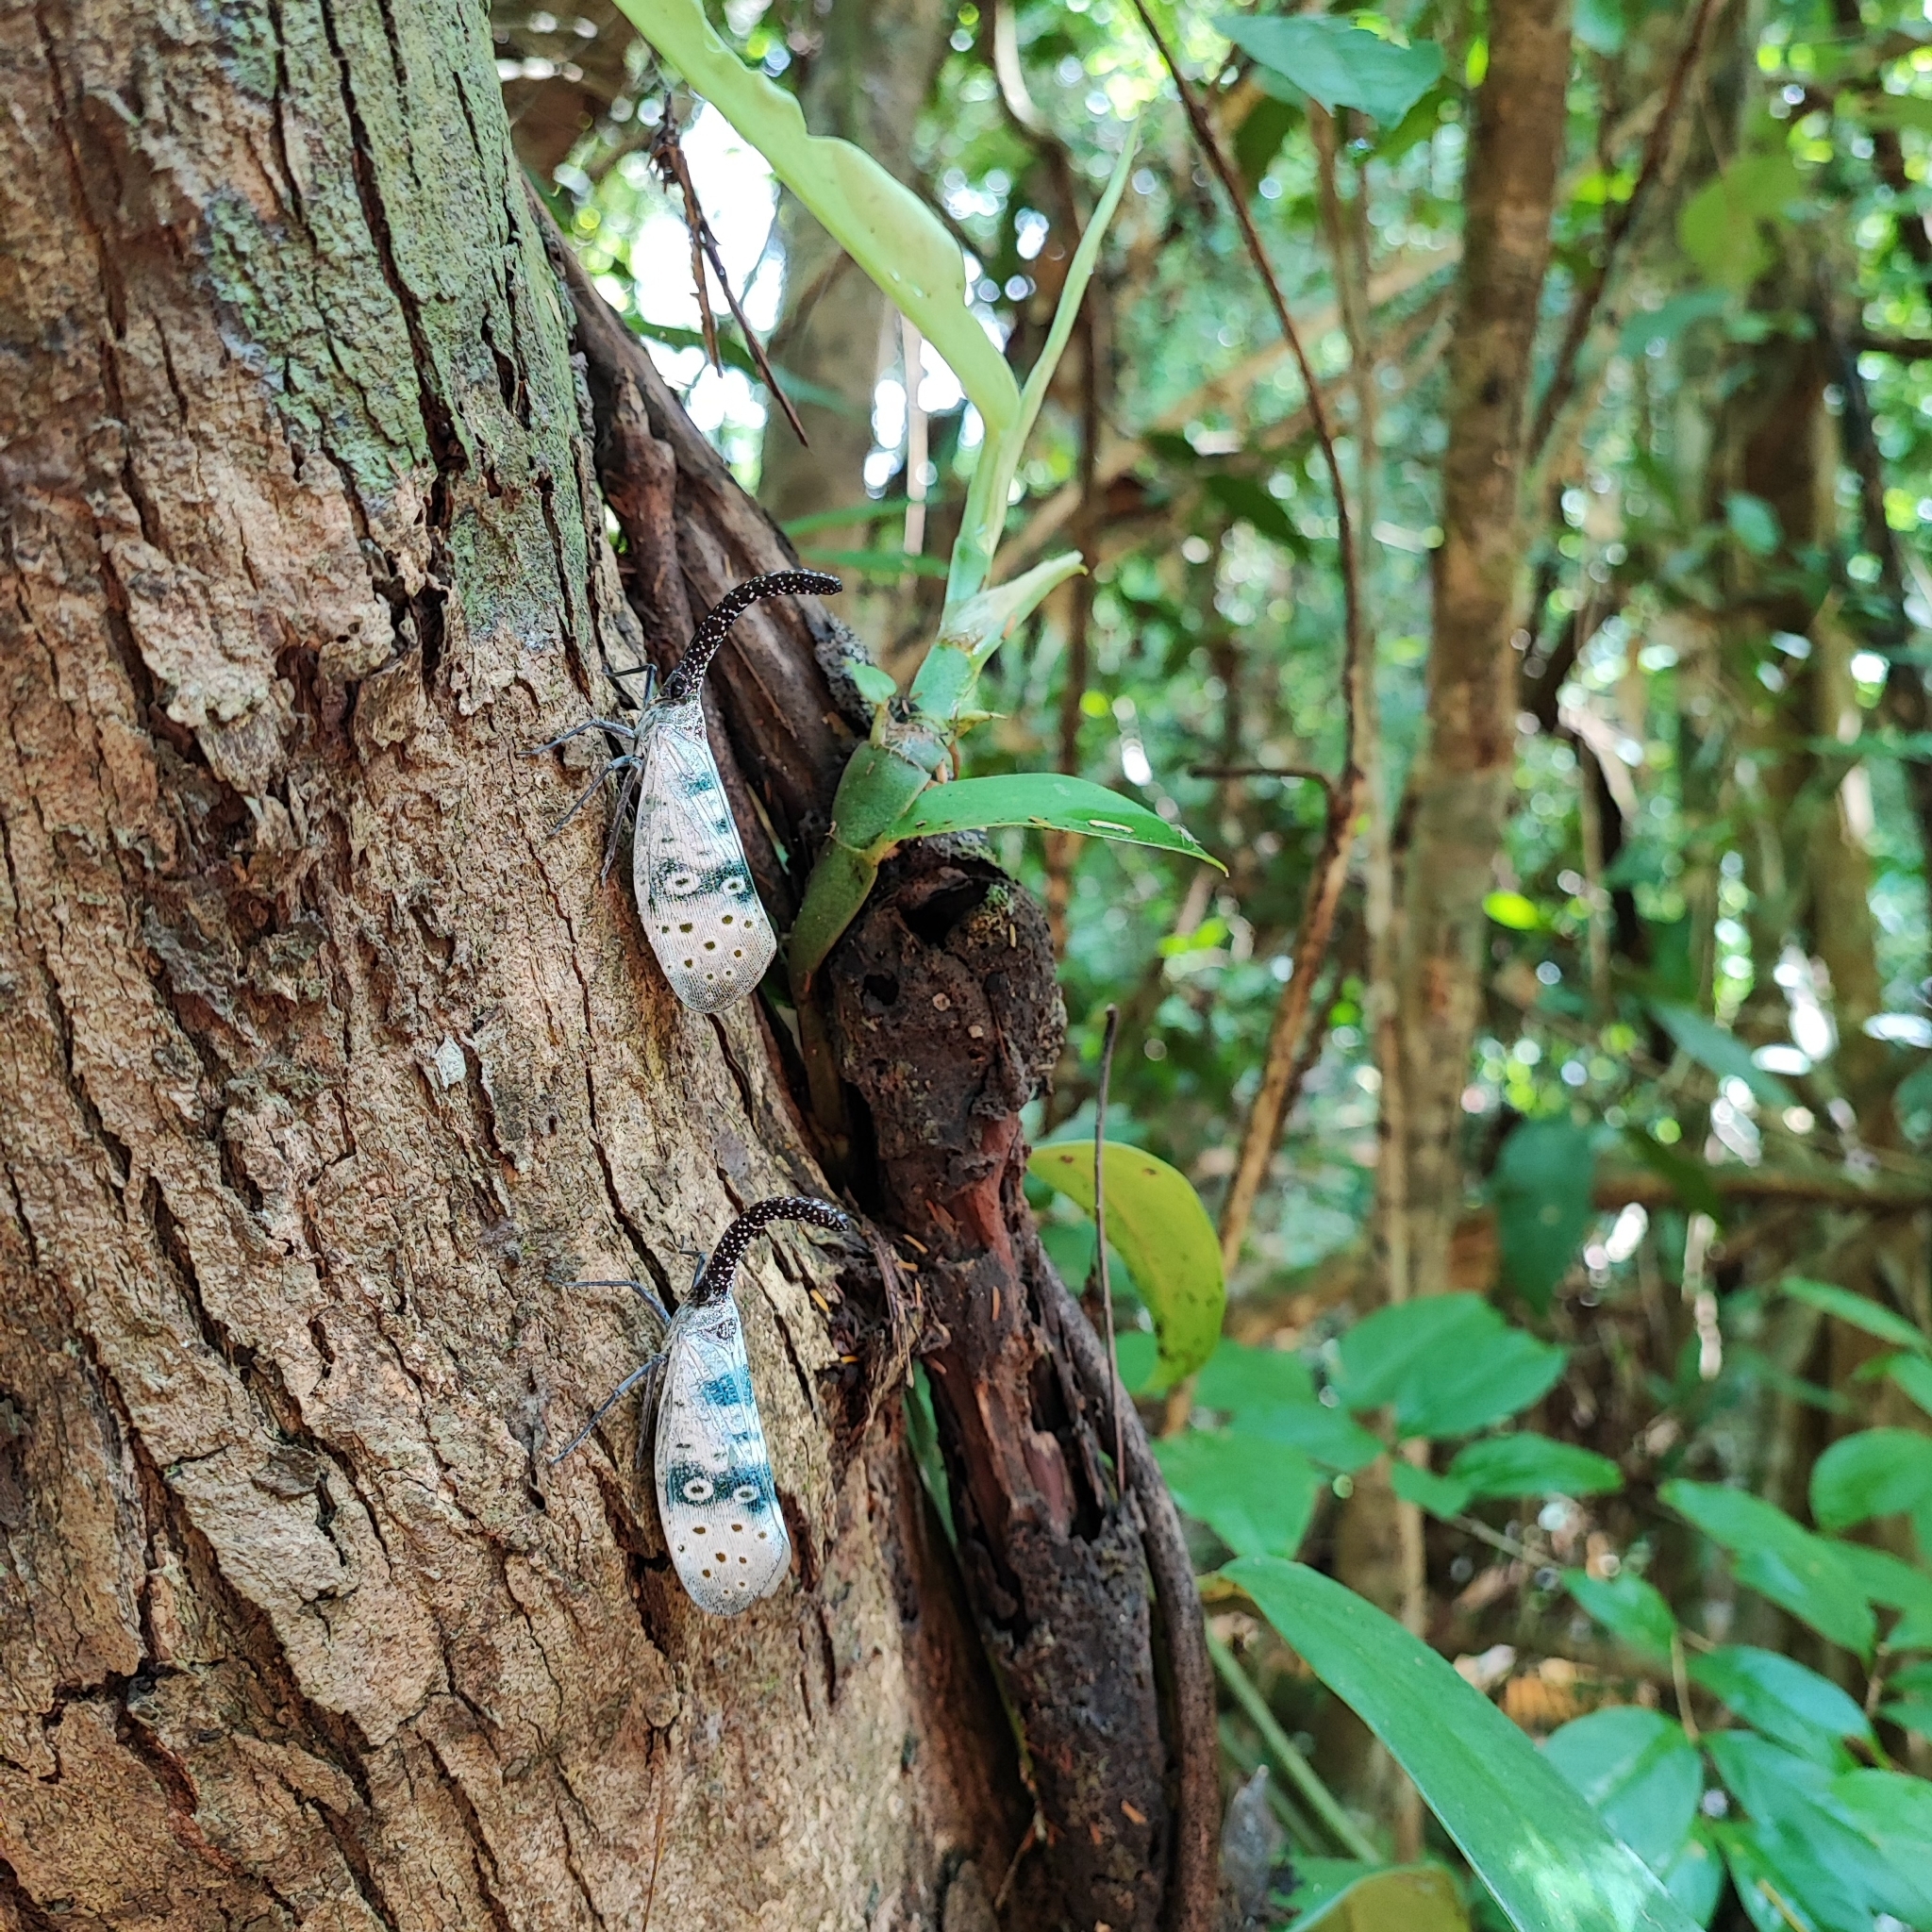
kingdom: Animalia
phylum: Arthropoda
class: Insecta
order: Hemiptera
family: Fulgoridae
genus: Pyrops
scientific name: Pyrops coelestinus
